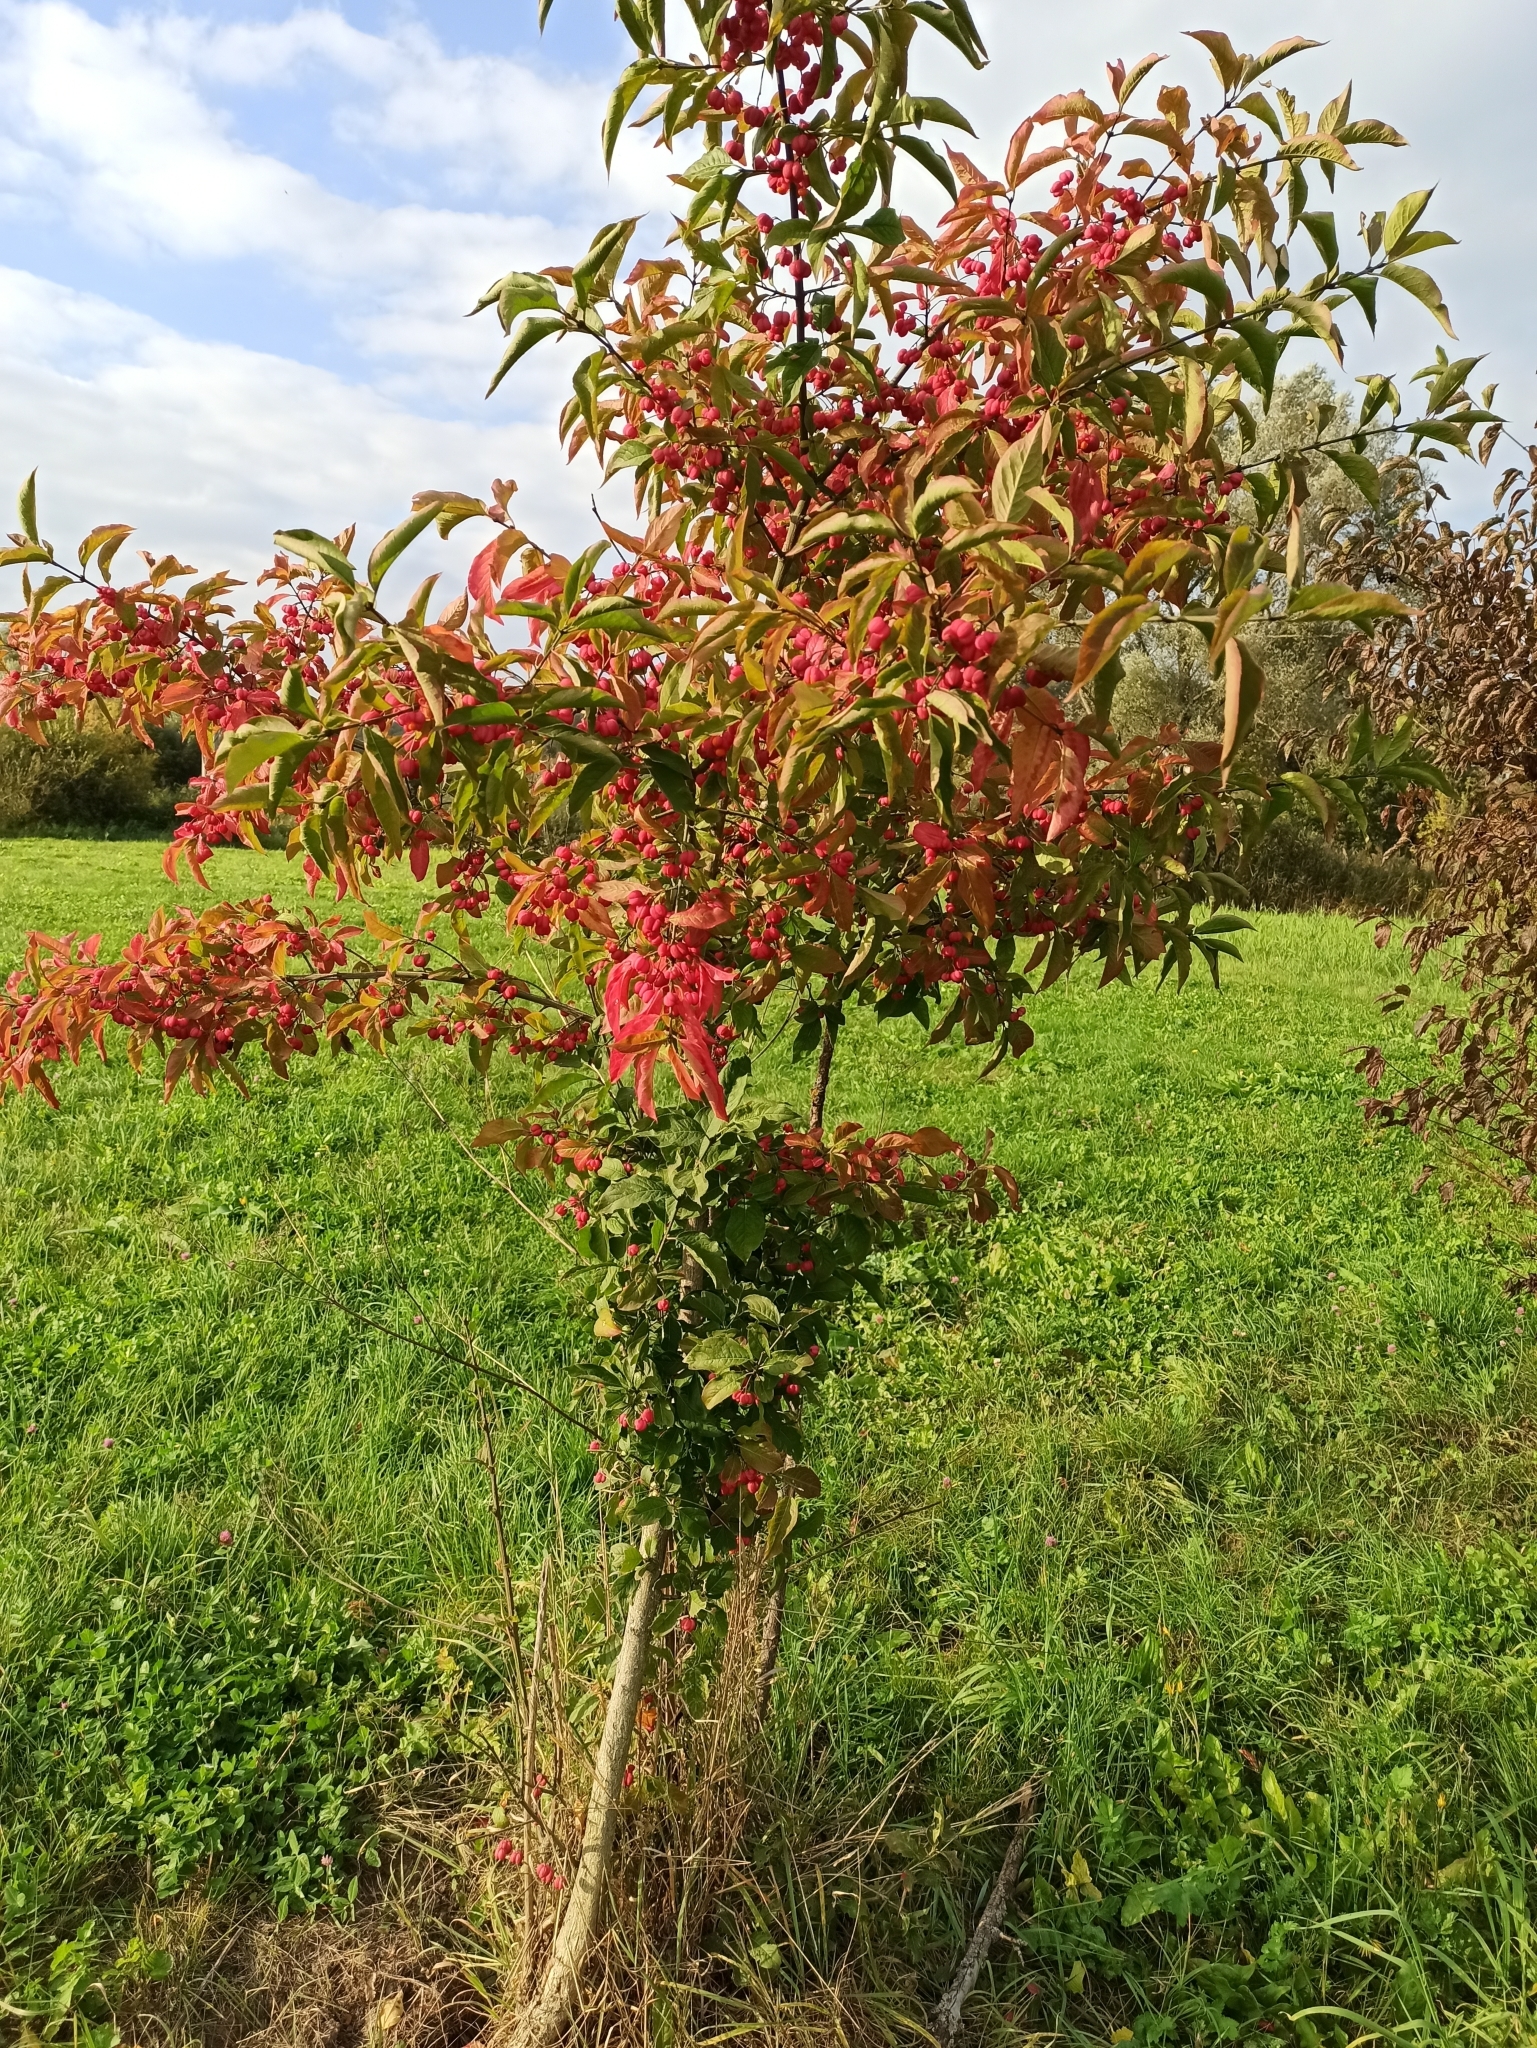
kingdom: Plantae
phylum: Tracheophyta
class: Magnoliopsida
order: Celastrales
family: Celastraceae
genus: Euonymus
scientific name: Euonymus europaeus
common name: Spindle
